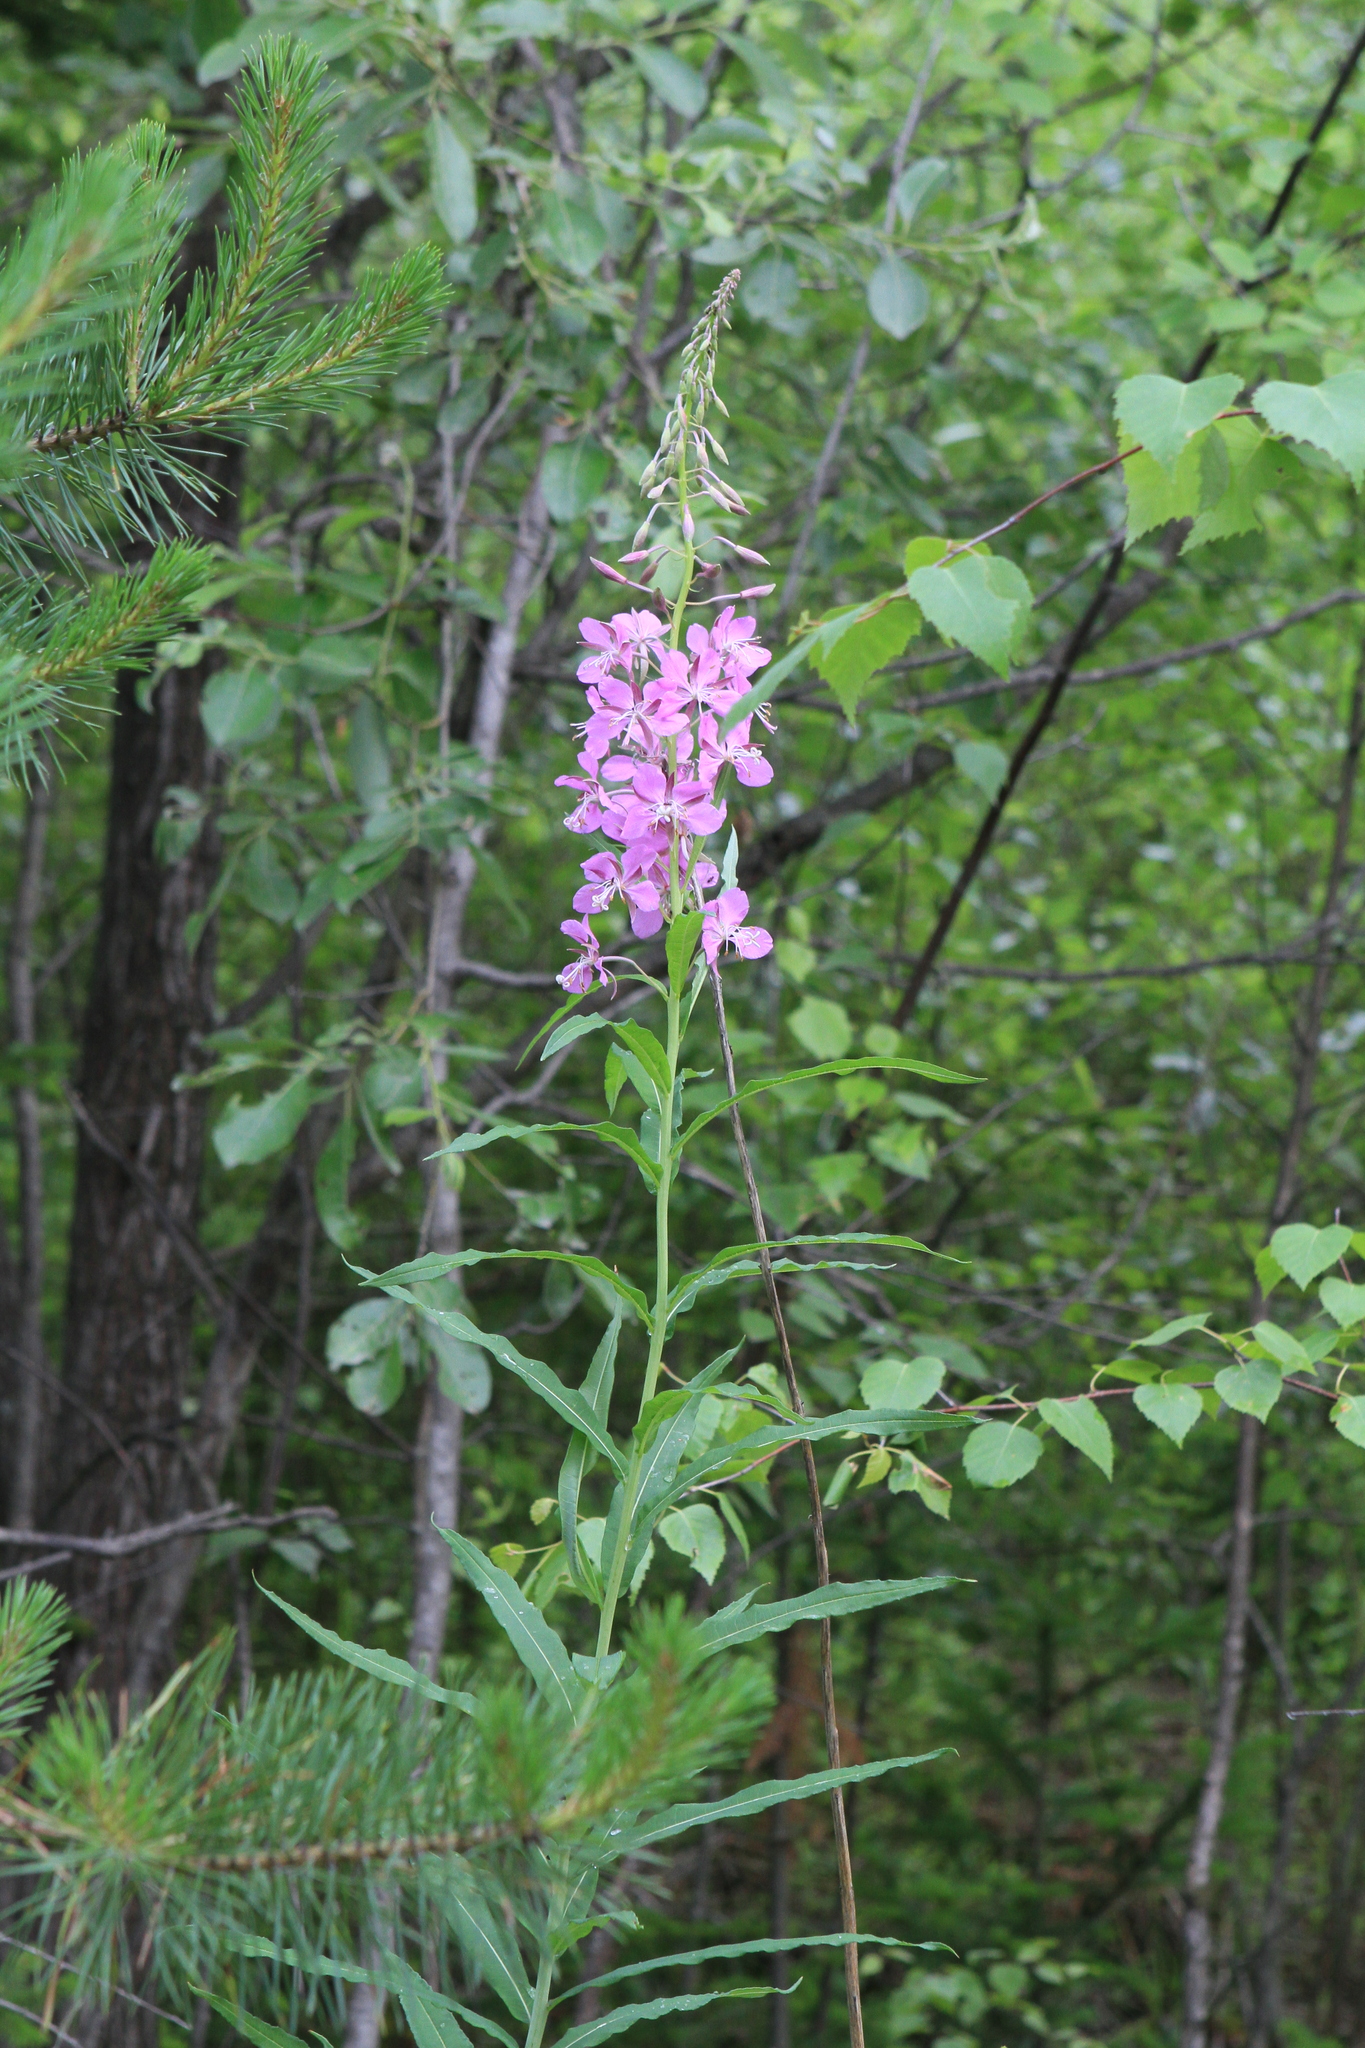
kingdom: Plantae
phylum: Tracheophyta
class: Magnoliopsida
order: Myrtales
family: Onagraceae
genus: Chamaenerion
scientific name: Chamaenerion angustifolium
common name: Fireweed
